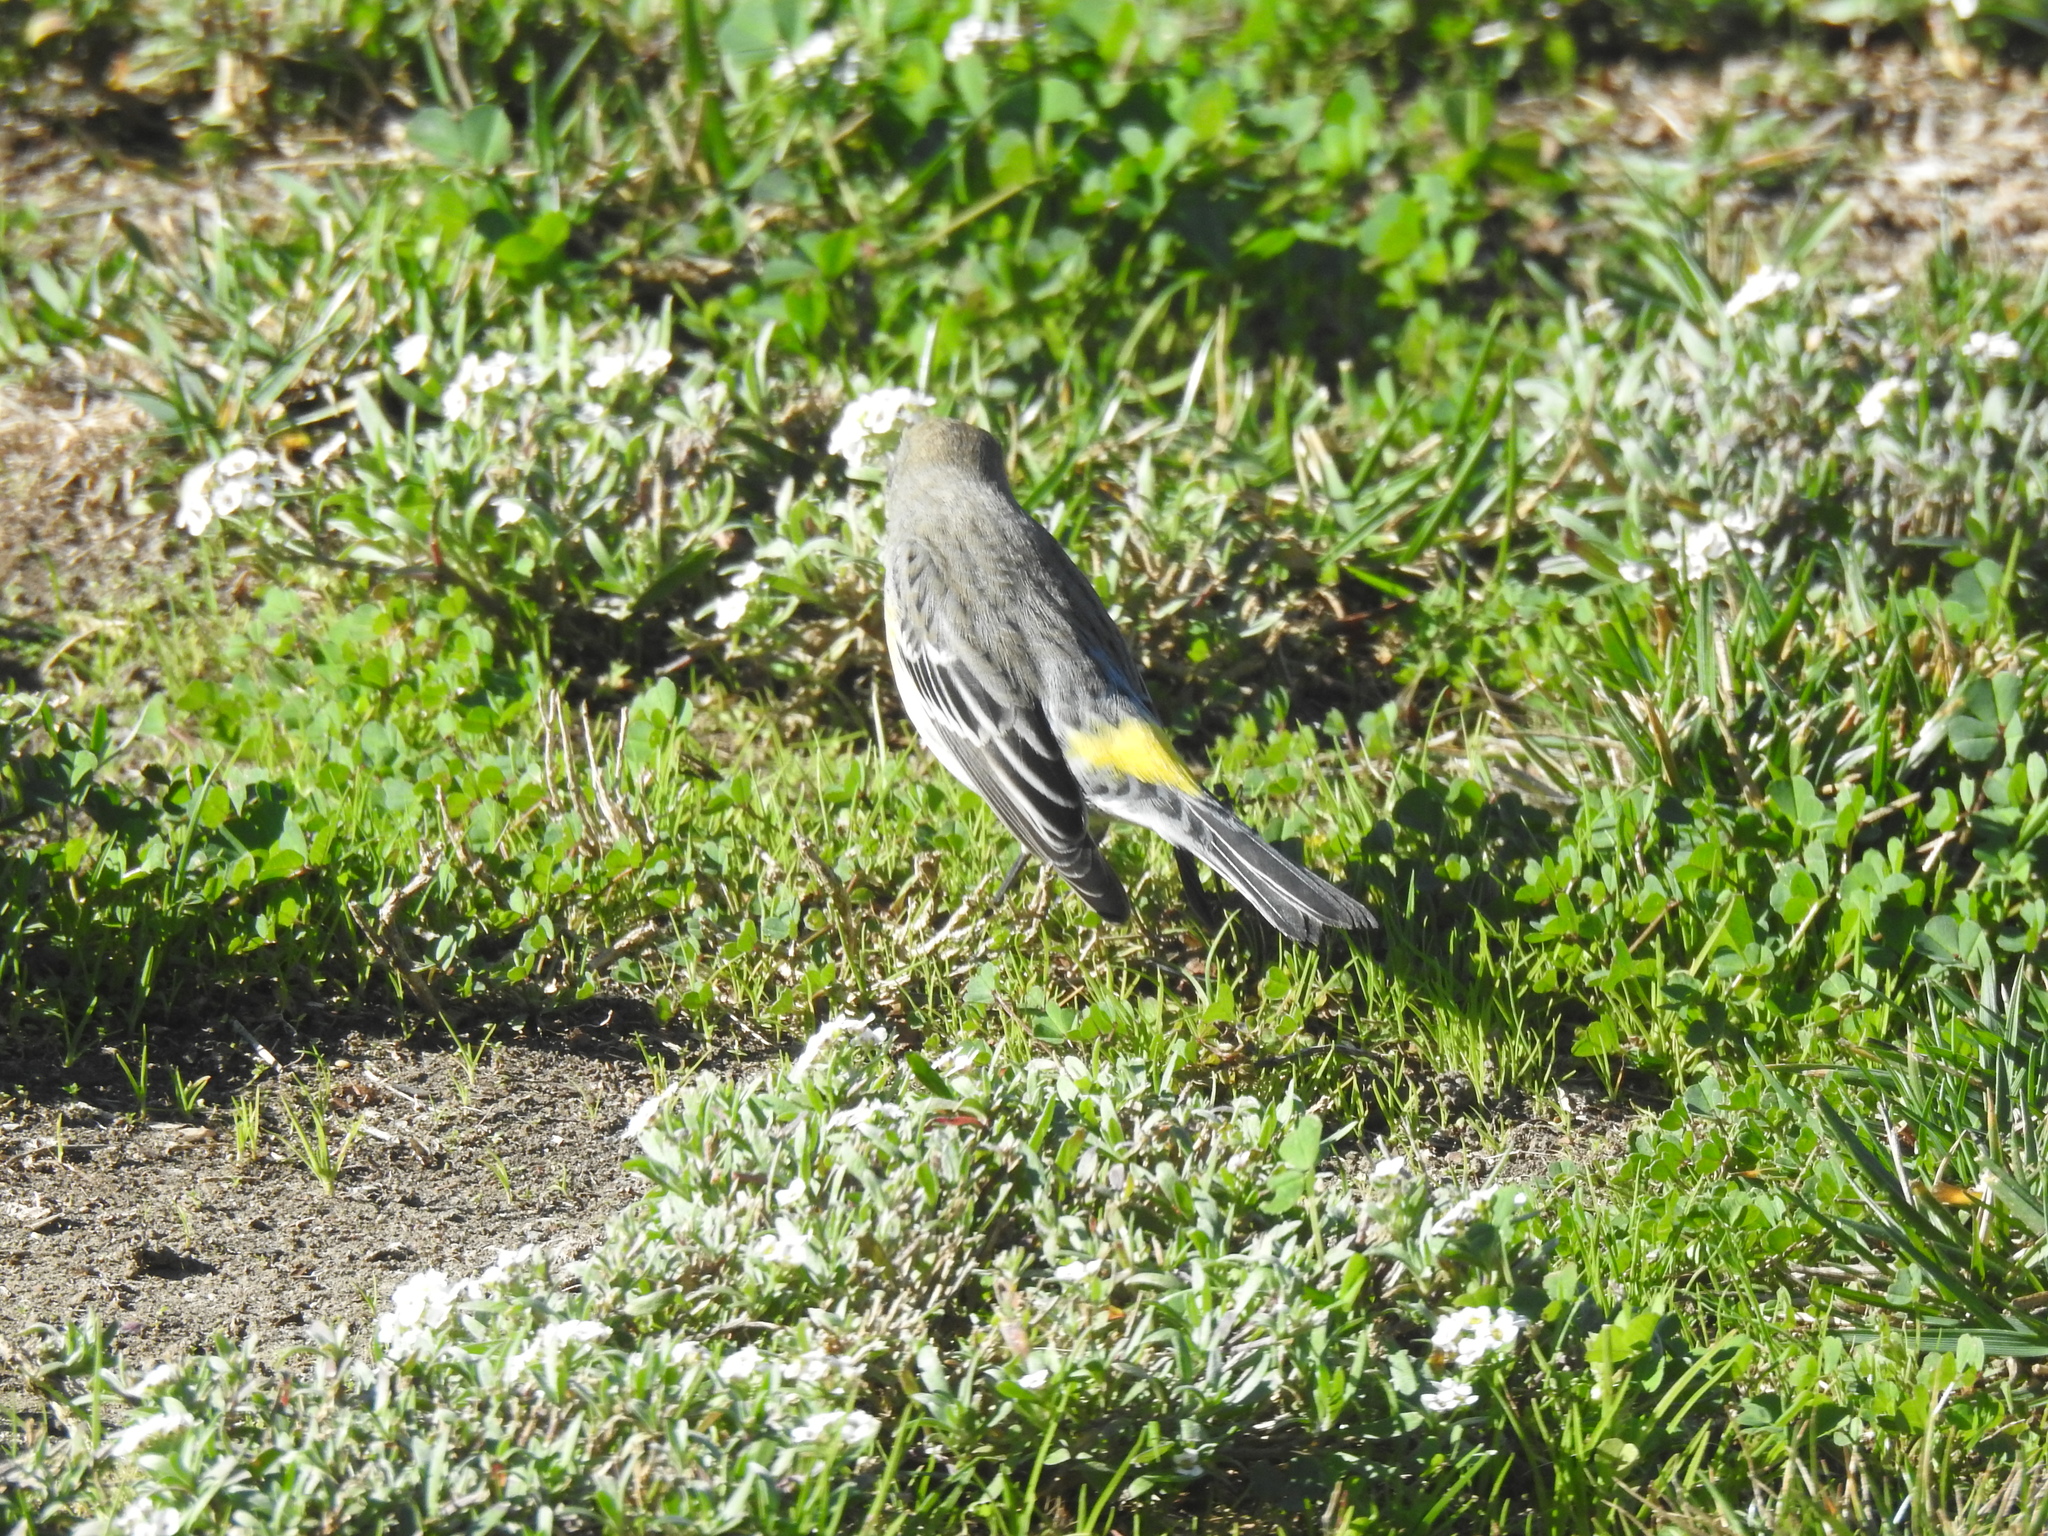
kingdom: Animalia
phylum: Chordata
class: Aves
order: Passeriformes
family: Parulidae
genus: Setophaga
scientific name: Setophaga coronata
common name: Myrtle warbler
